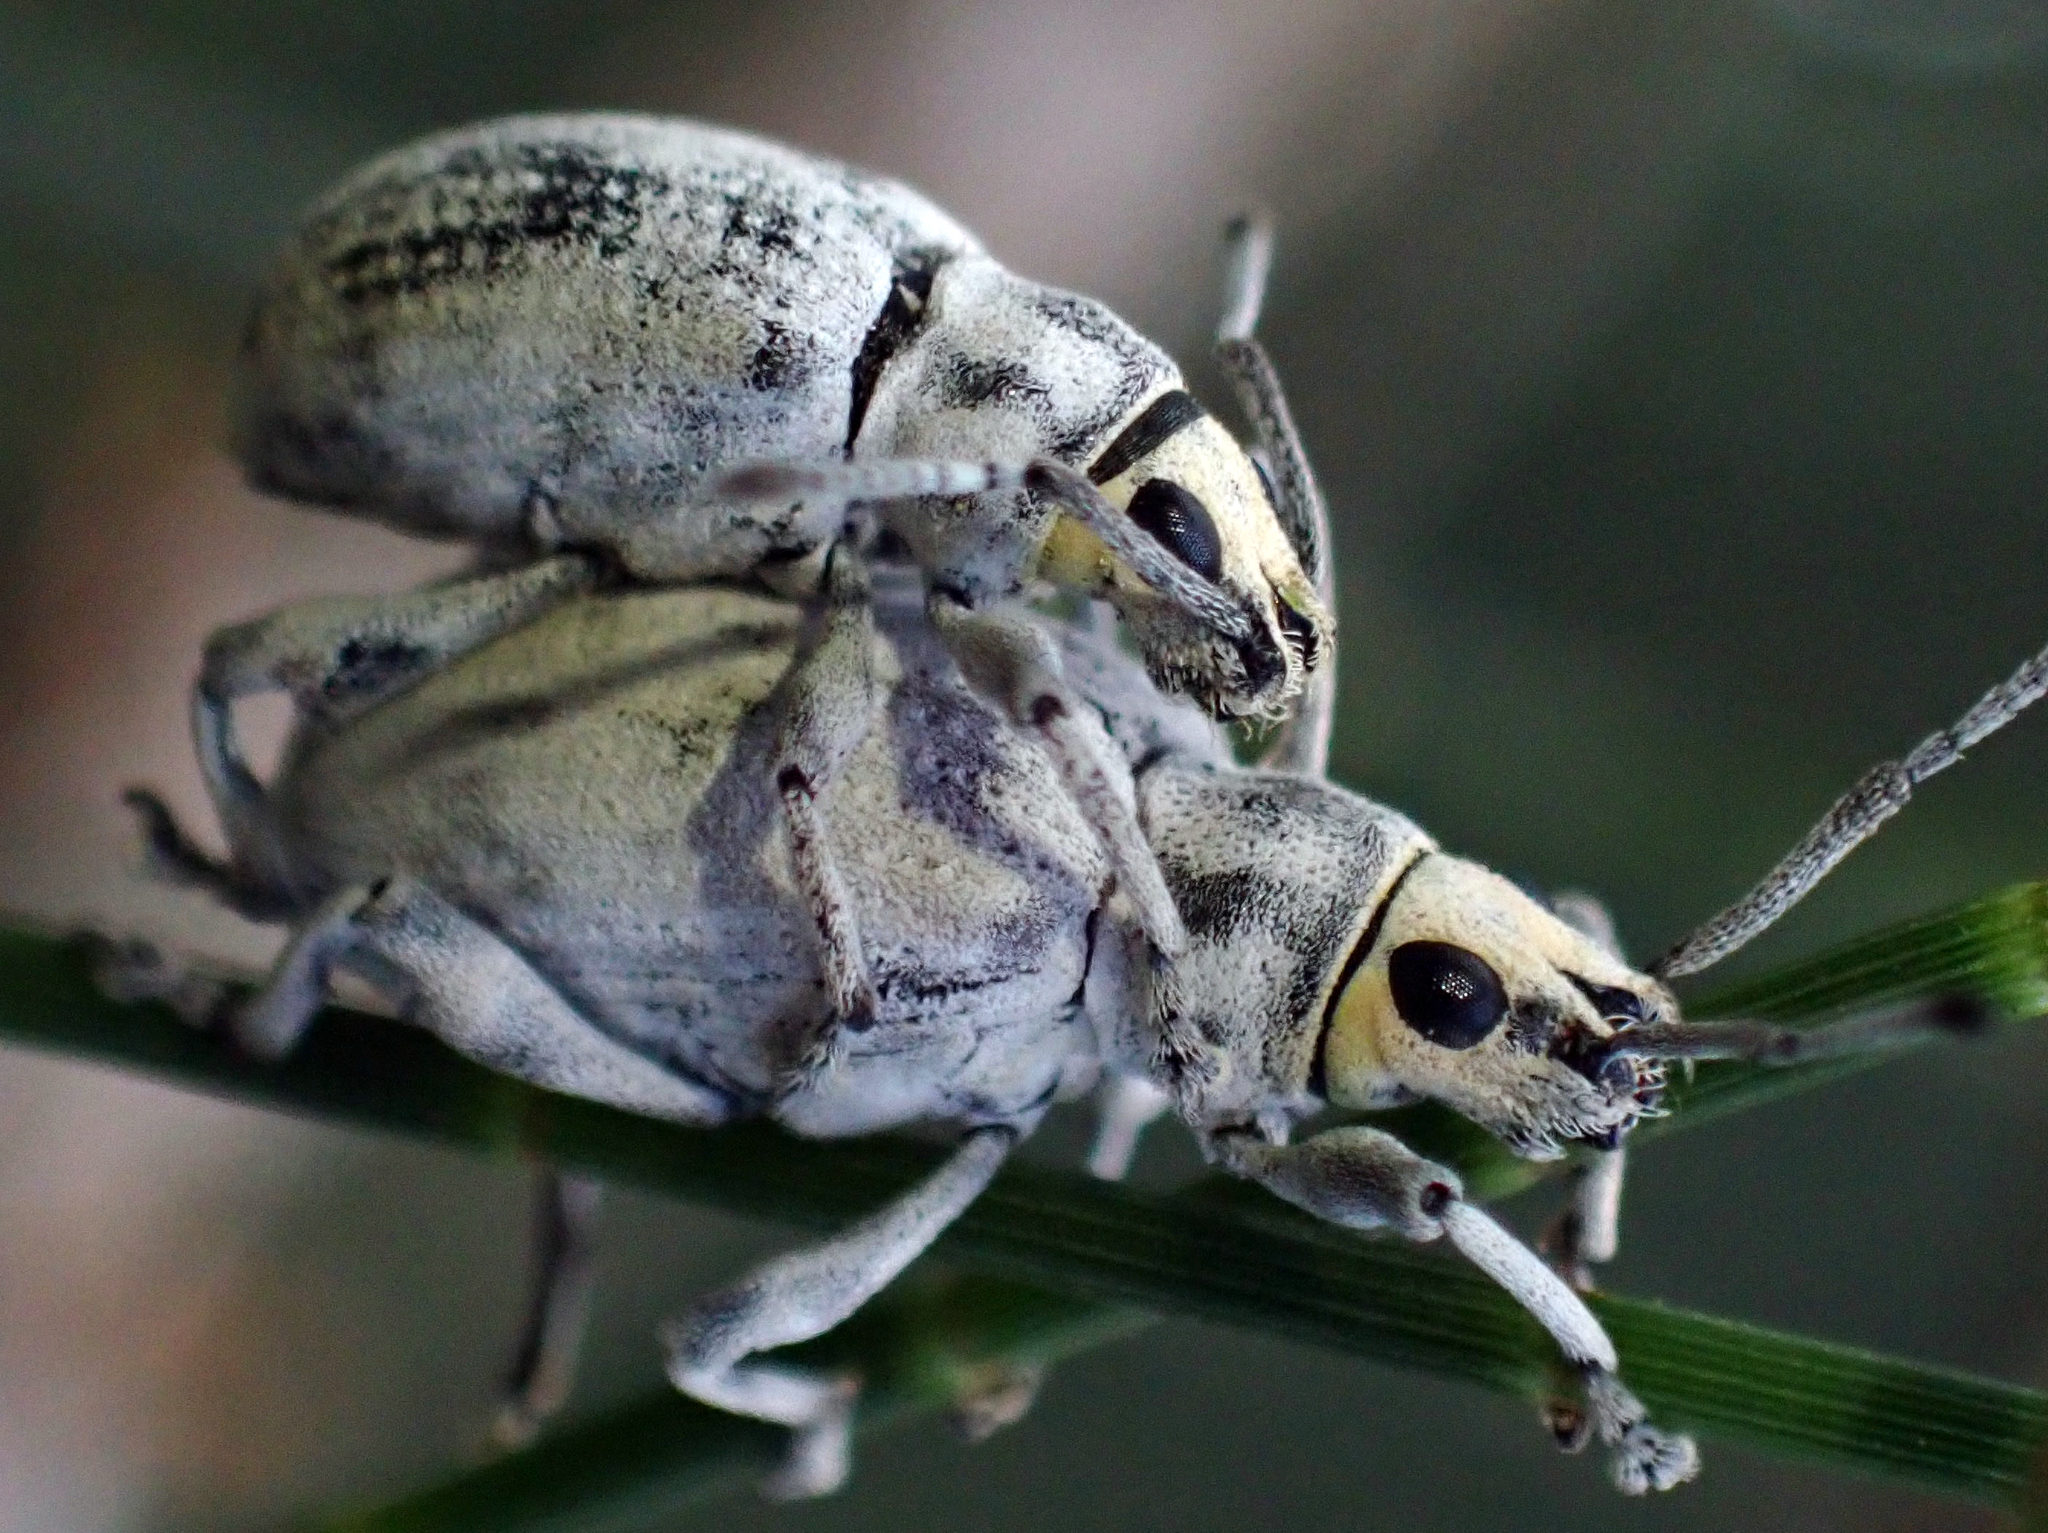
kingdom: Animalia
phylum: Arthropoda
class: Insecta
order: Coleoptera
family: Curculionidae
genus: Myllocerus
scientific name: Myllocerus undecimpustulatus
